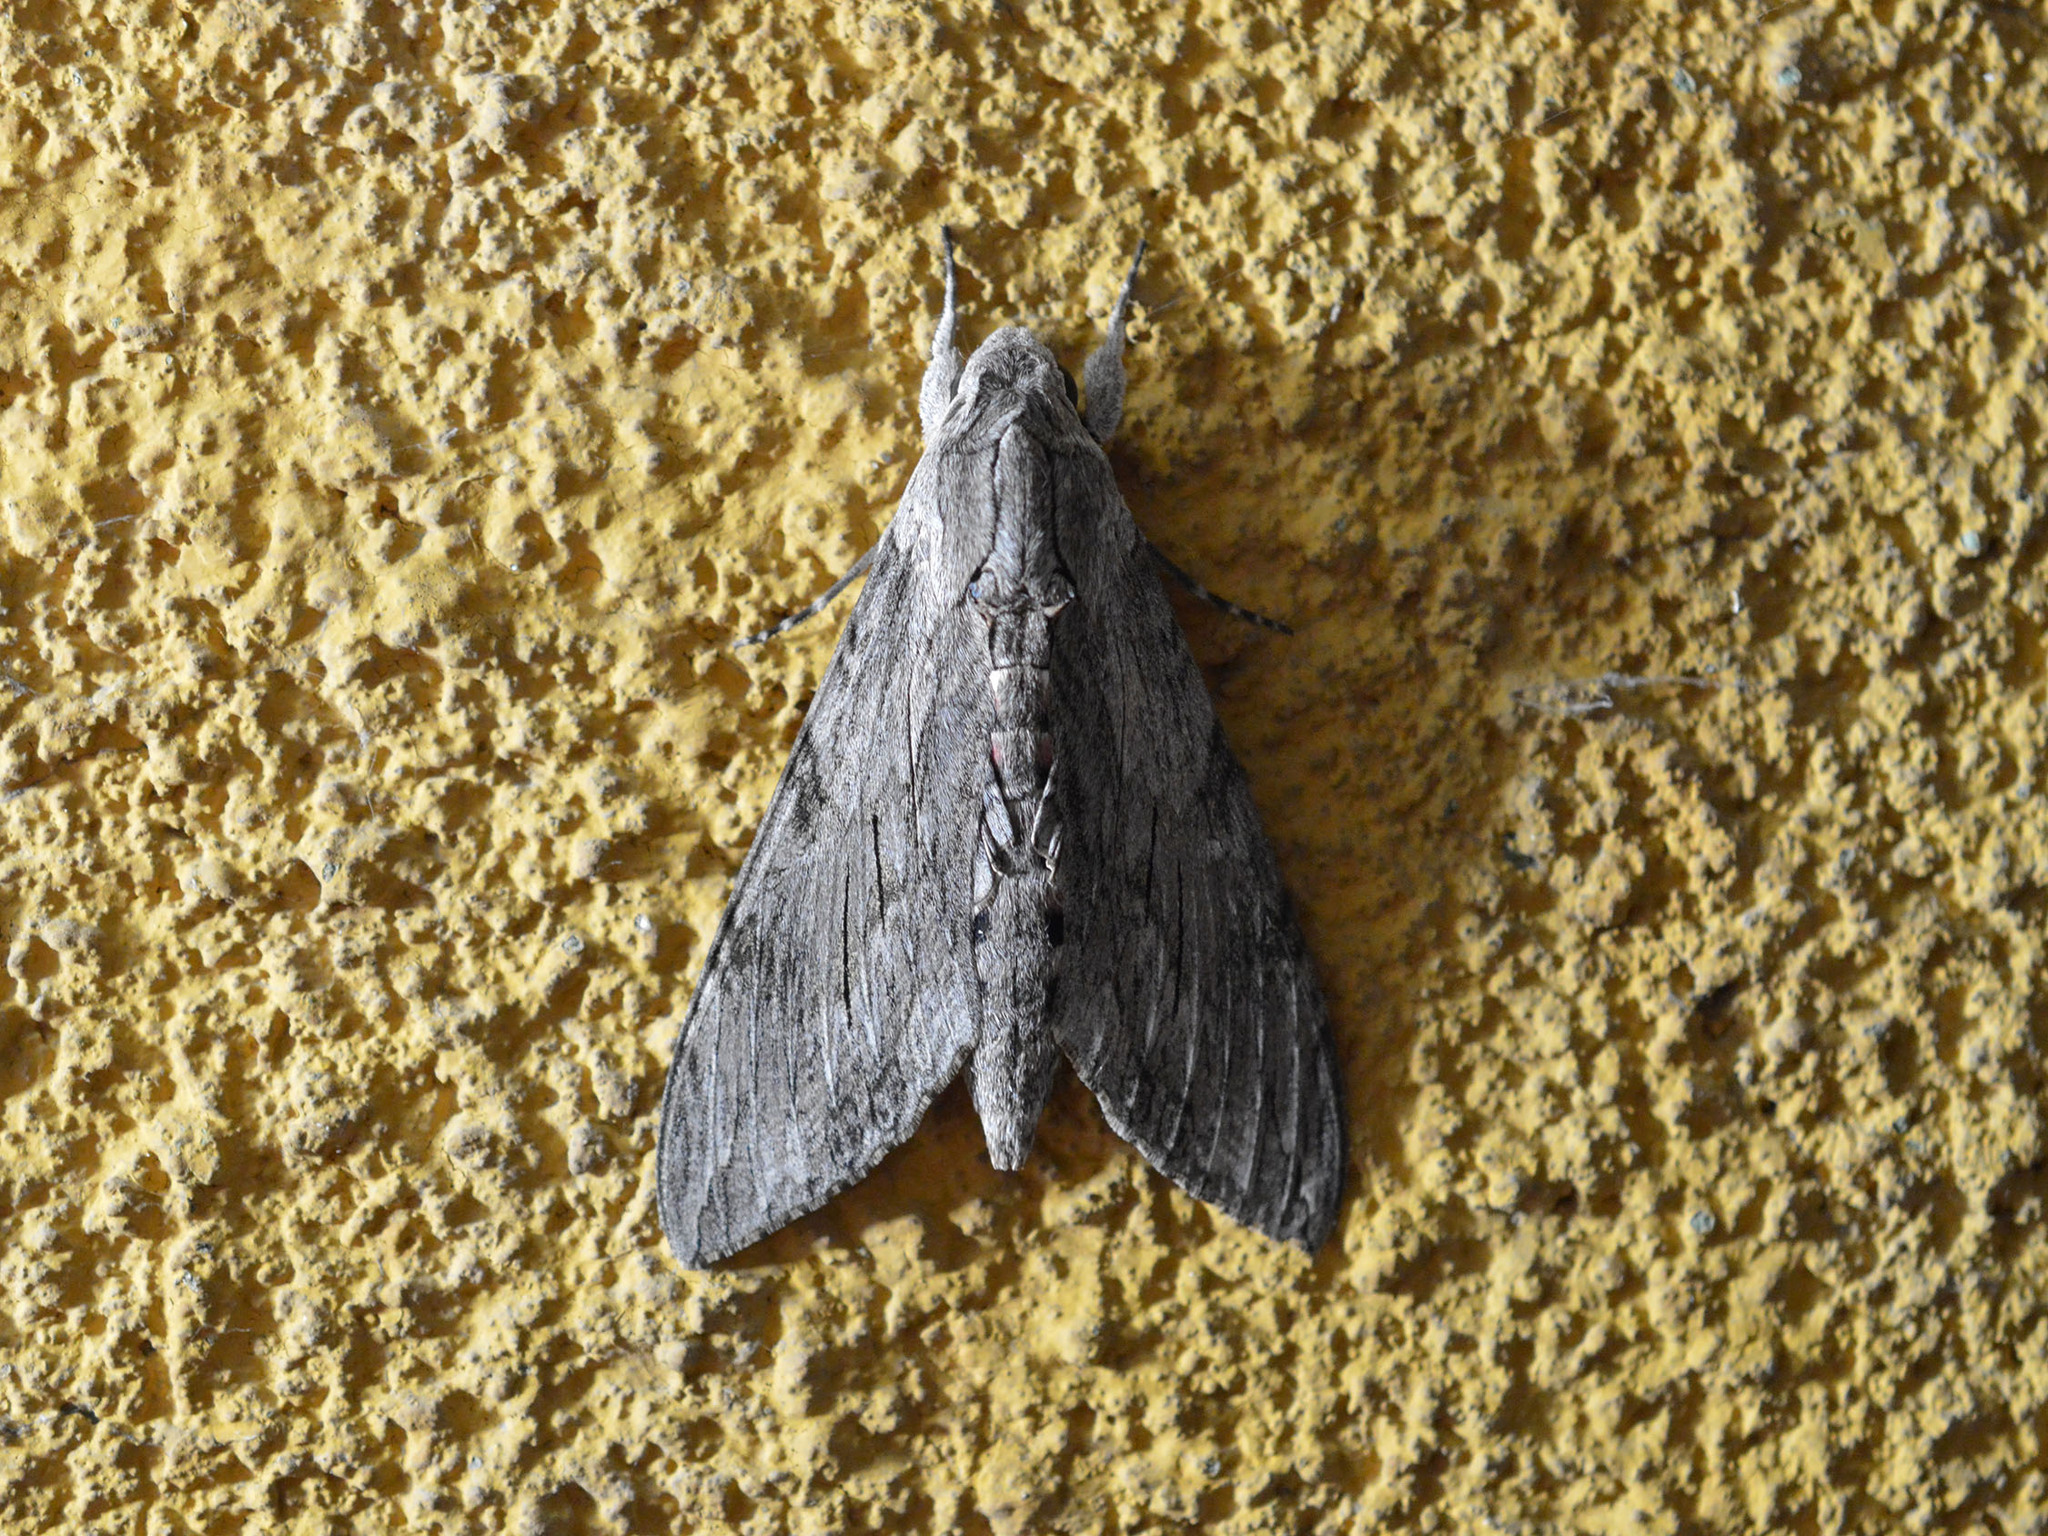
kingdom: Animalia
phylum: Arthropoda
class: Insecta
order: Lepidoptera
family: Sphingidae
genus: Agrius
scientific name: Agrius convolvuli
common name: Convolvulus hawkmoth
